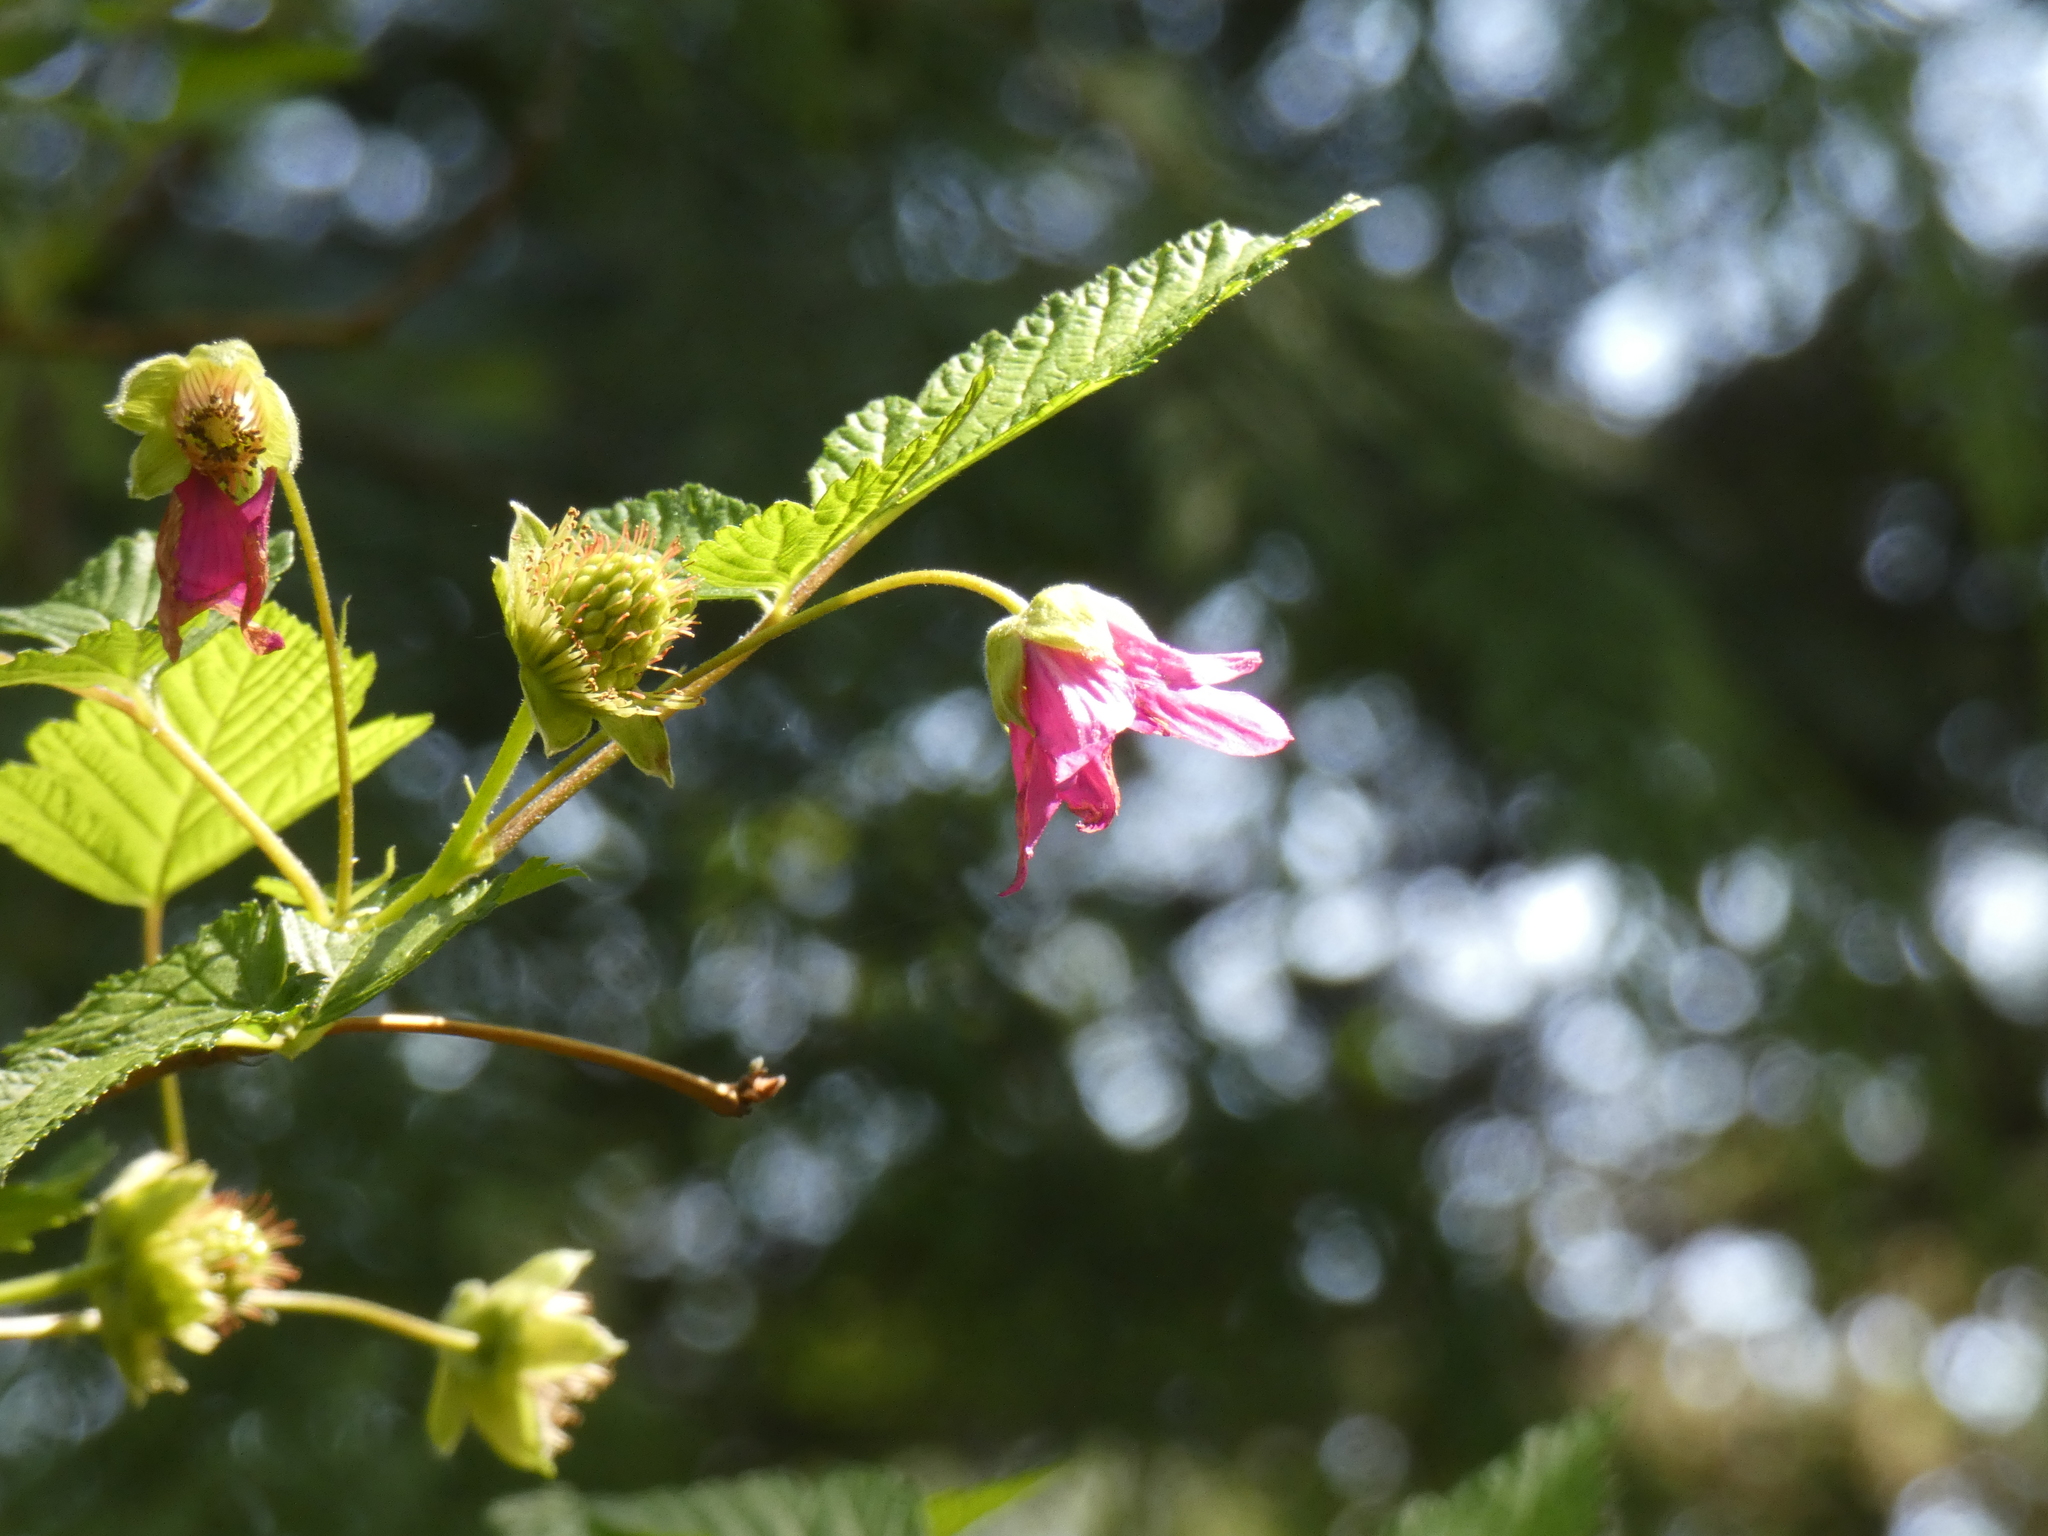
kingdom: Plantae
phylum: Tracheophyta
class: Magnoliopsida
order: Rosales
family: Rosaceae
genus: Rubus
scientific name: Rubus spectabilis
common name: Salmonberry
